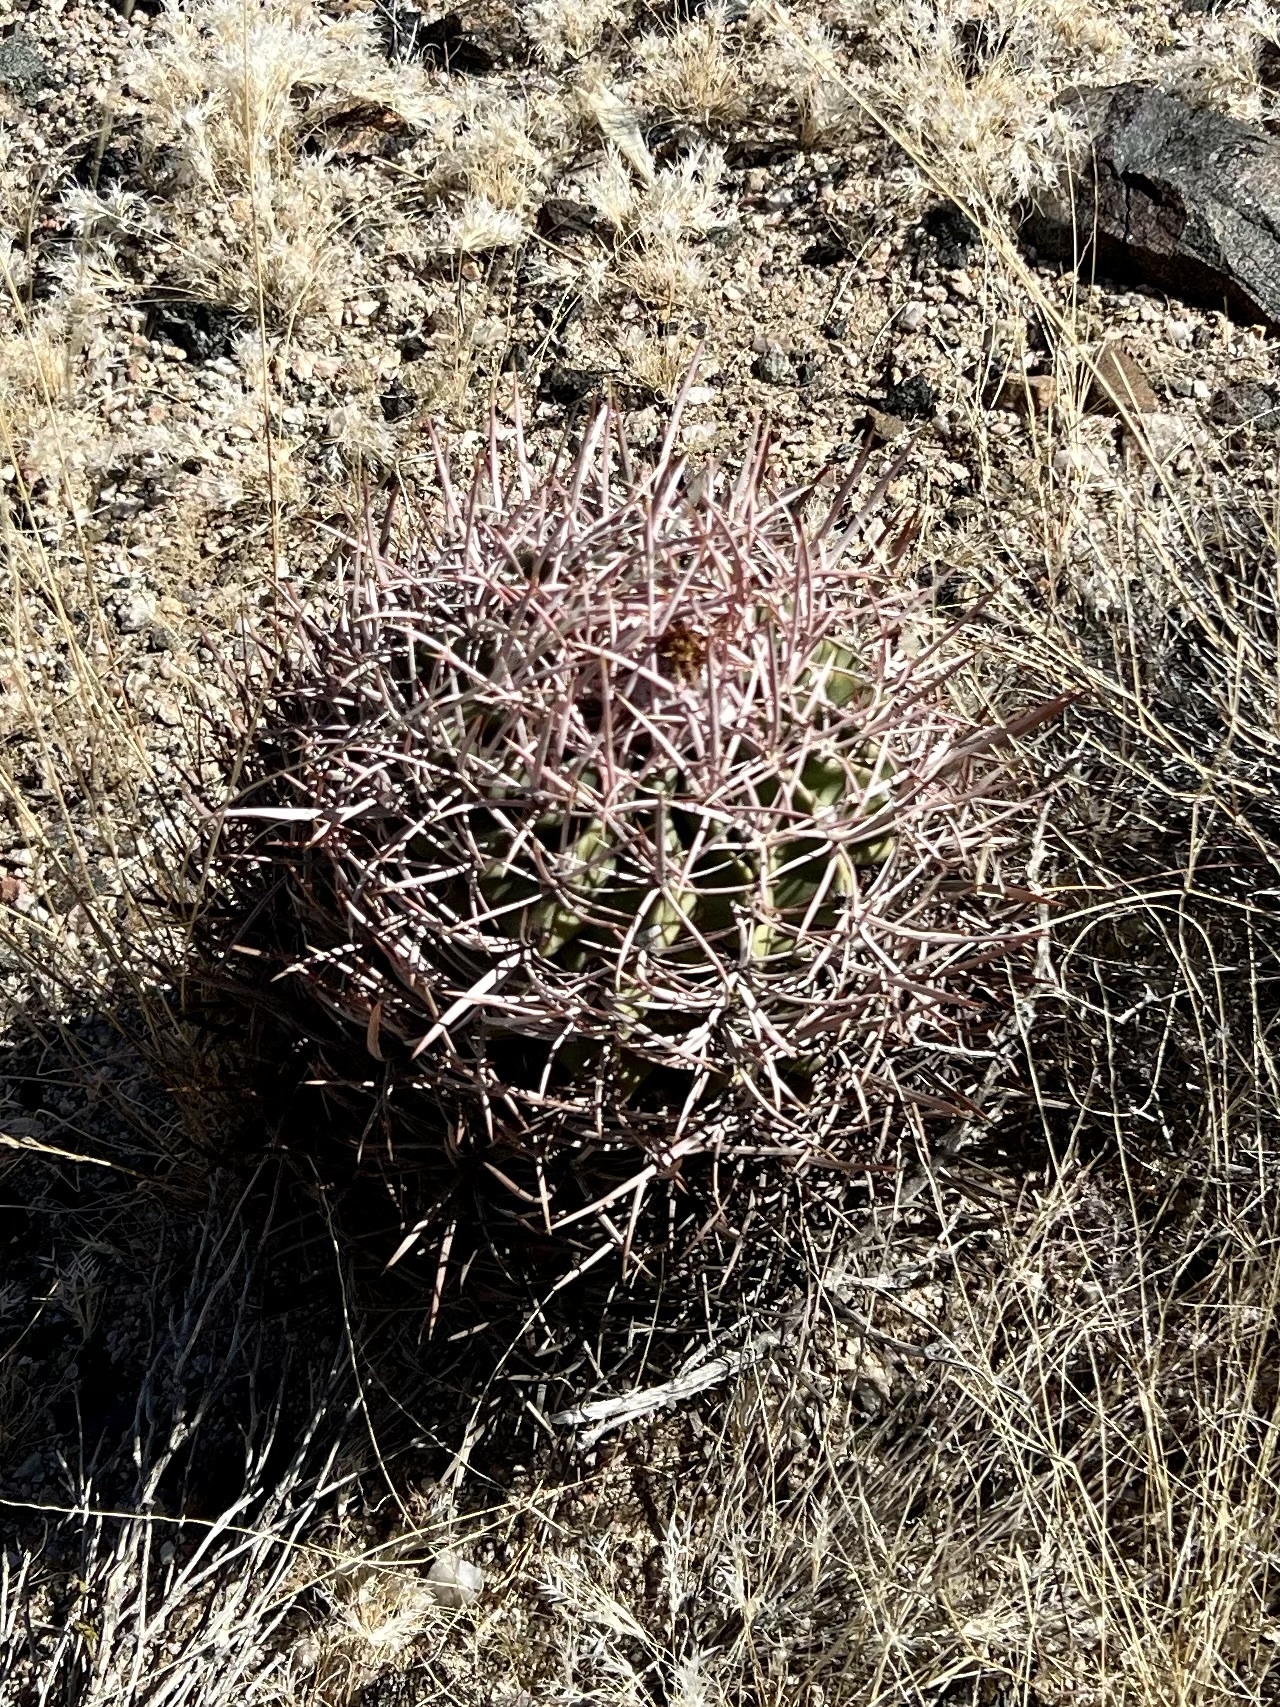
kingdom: Plantae
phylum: Tracheophyta
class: Magnoliopsida
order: Caryophyllales
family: Cactaceae
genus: Echinocactus
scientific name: Echinocactus polycephalus
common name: Cottontop cactus
